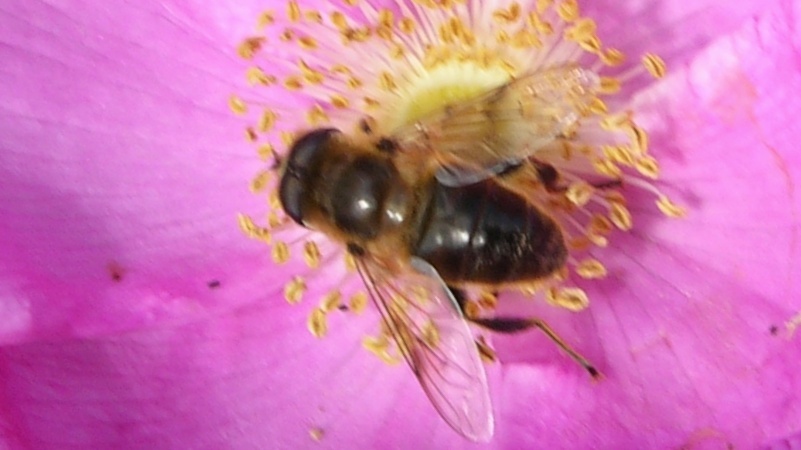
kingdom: Animalia
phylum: Arthropoda
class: Insecta
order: Diptera
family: Syrphidae
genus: Eristalis
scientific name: Eristalis tenax
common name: Drone fly
